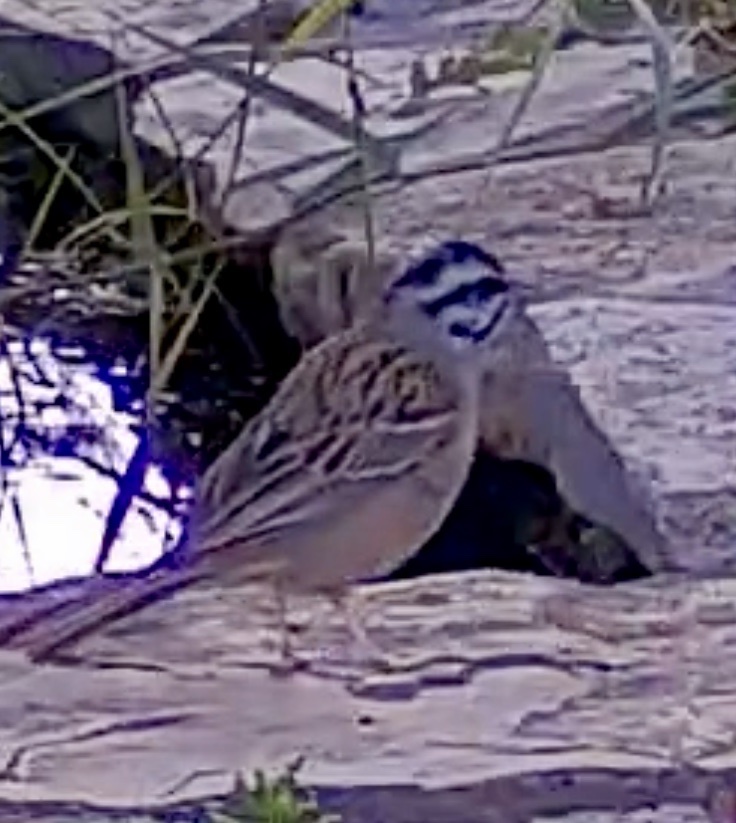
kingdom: Animalia
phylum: Chordata
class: Aves
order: Passeriformes
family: Emberizidae
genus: Emberiza
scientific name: Emberiza cia
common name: Rock bunting
